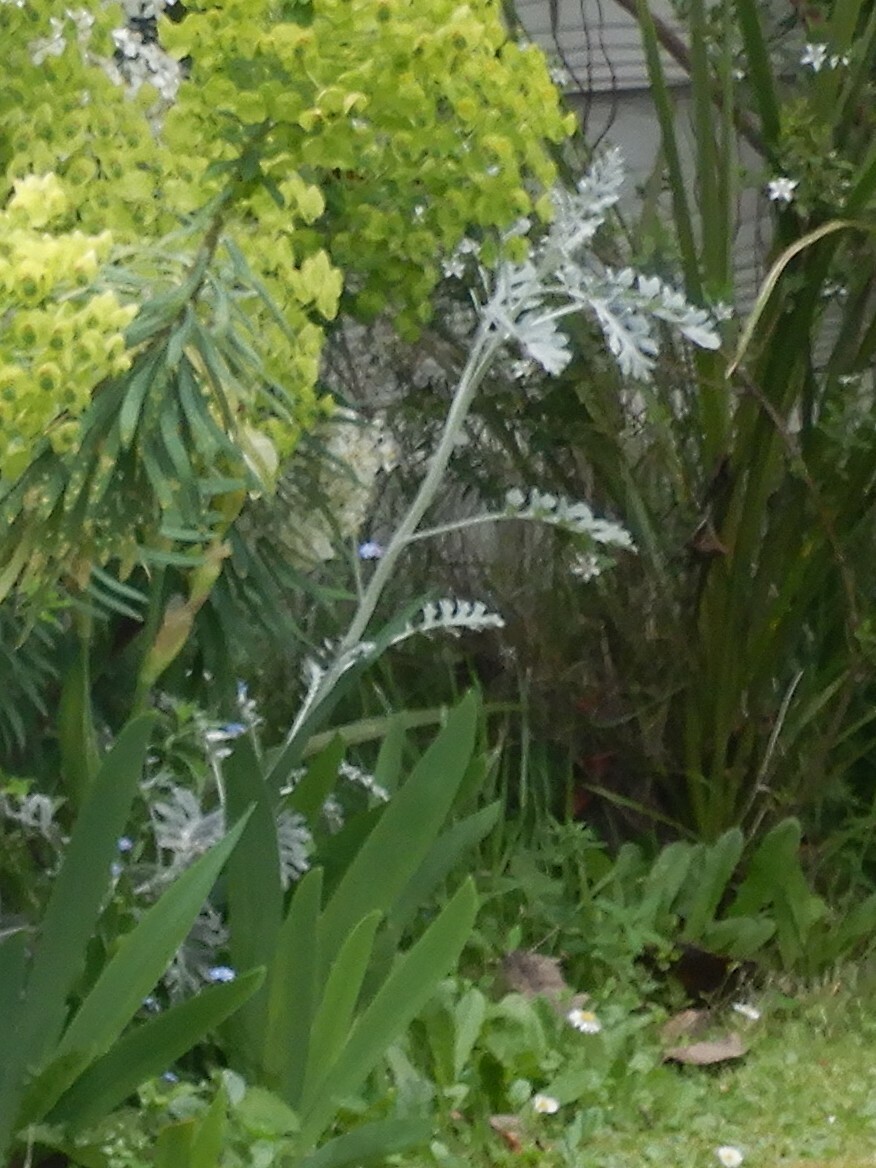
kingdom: Plantae
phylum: Tracheophyta
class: Magnoliopsida
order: Asterales
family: Asteraceae
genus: Jacobaea
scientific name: Jacobaea maritima
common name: Silver ragwort
